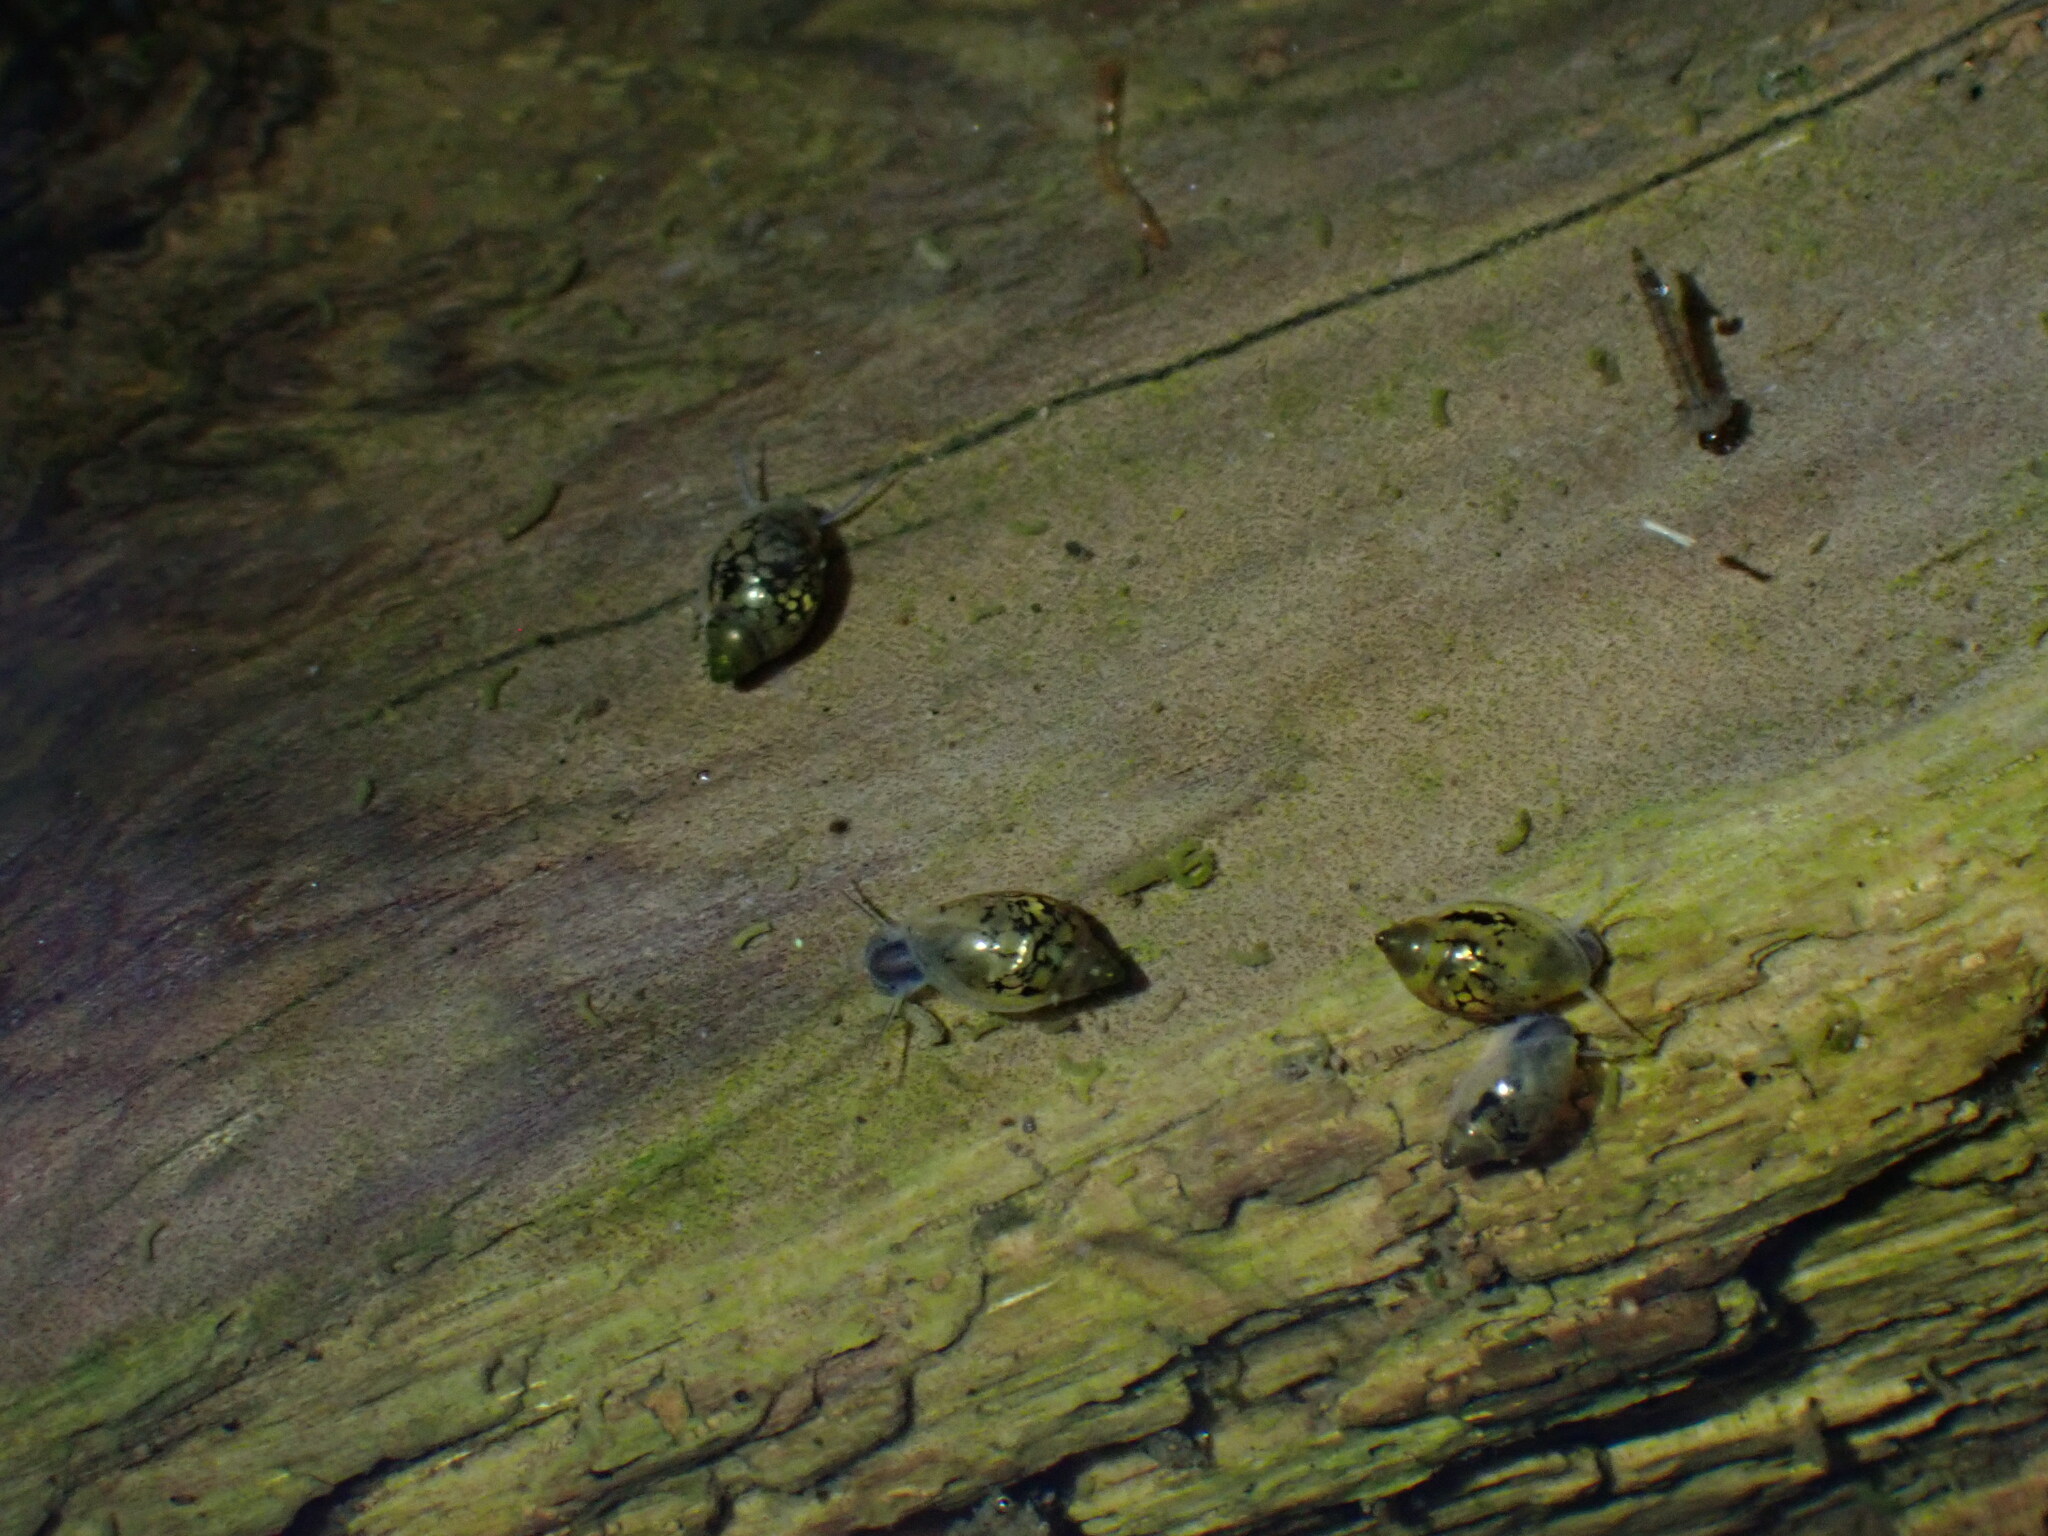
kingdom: Animalia
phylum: Mollusca
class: Gastropoda
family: Physidae
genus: Physella
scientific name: Physella acuta
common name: European physa
